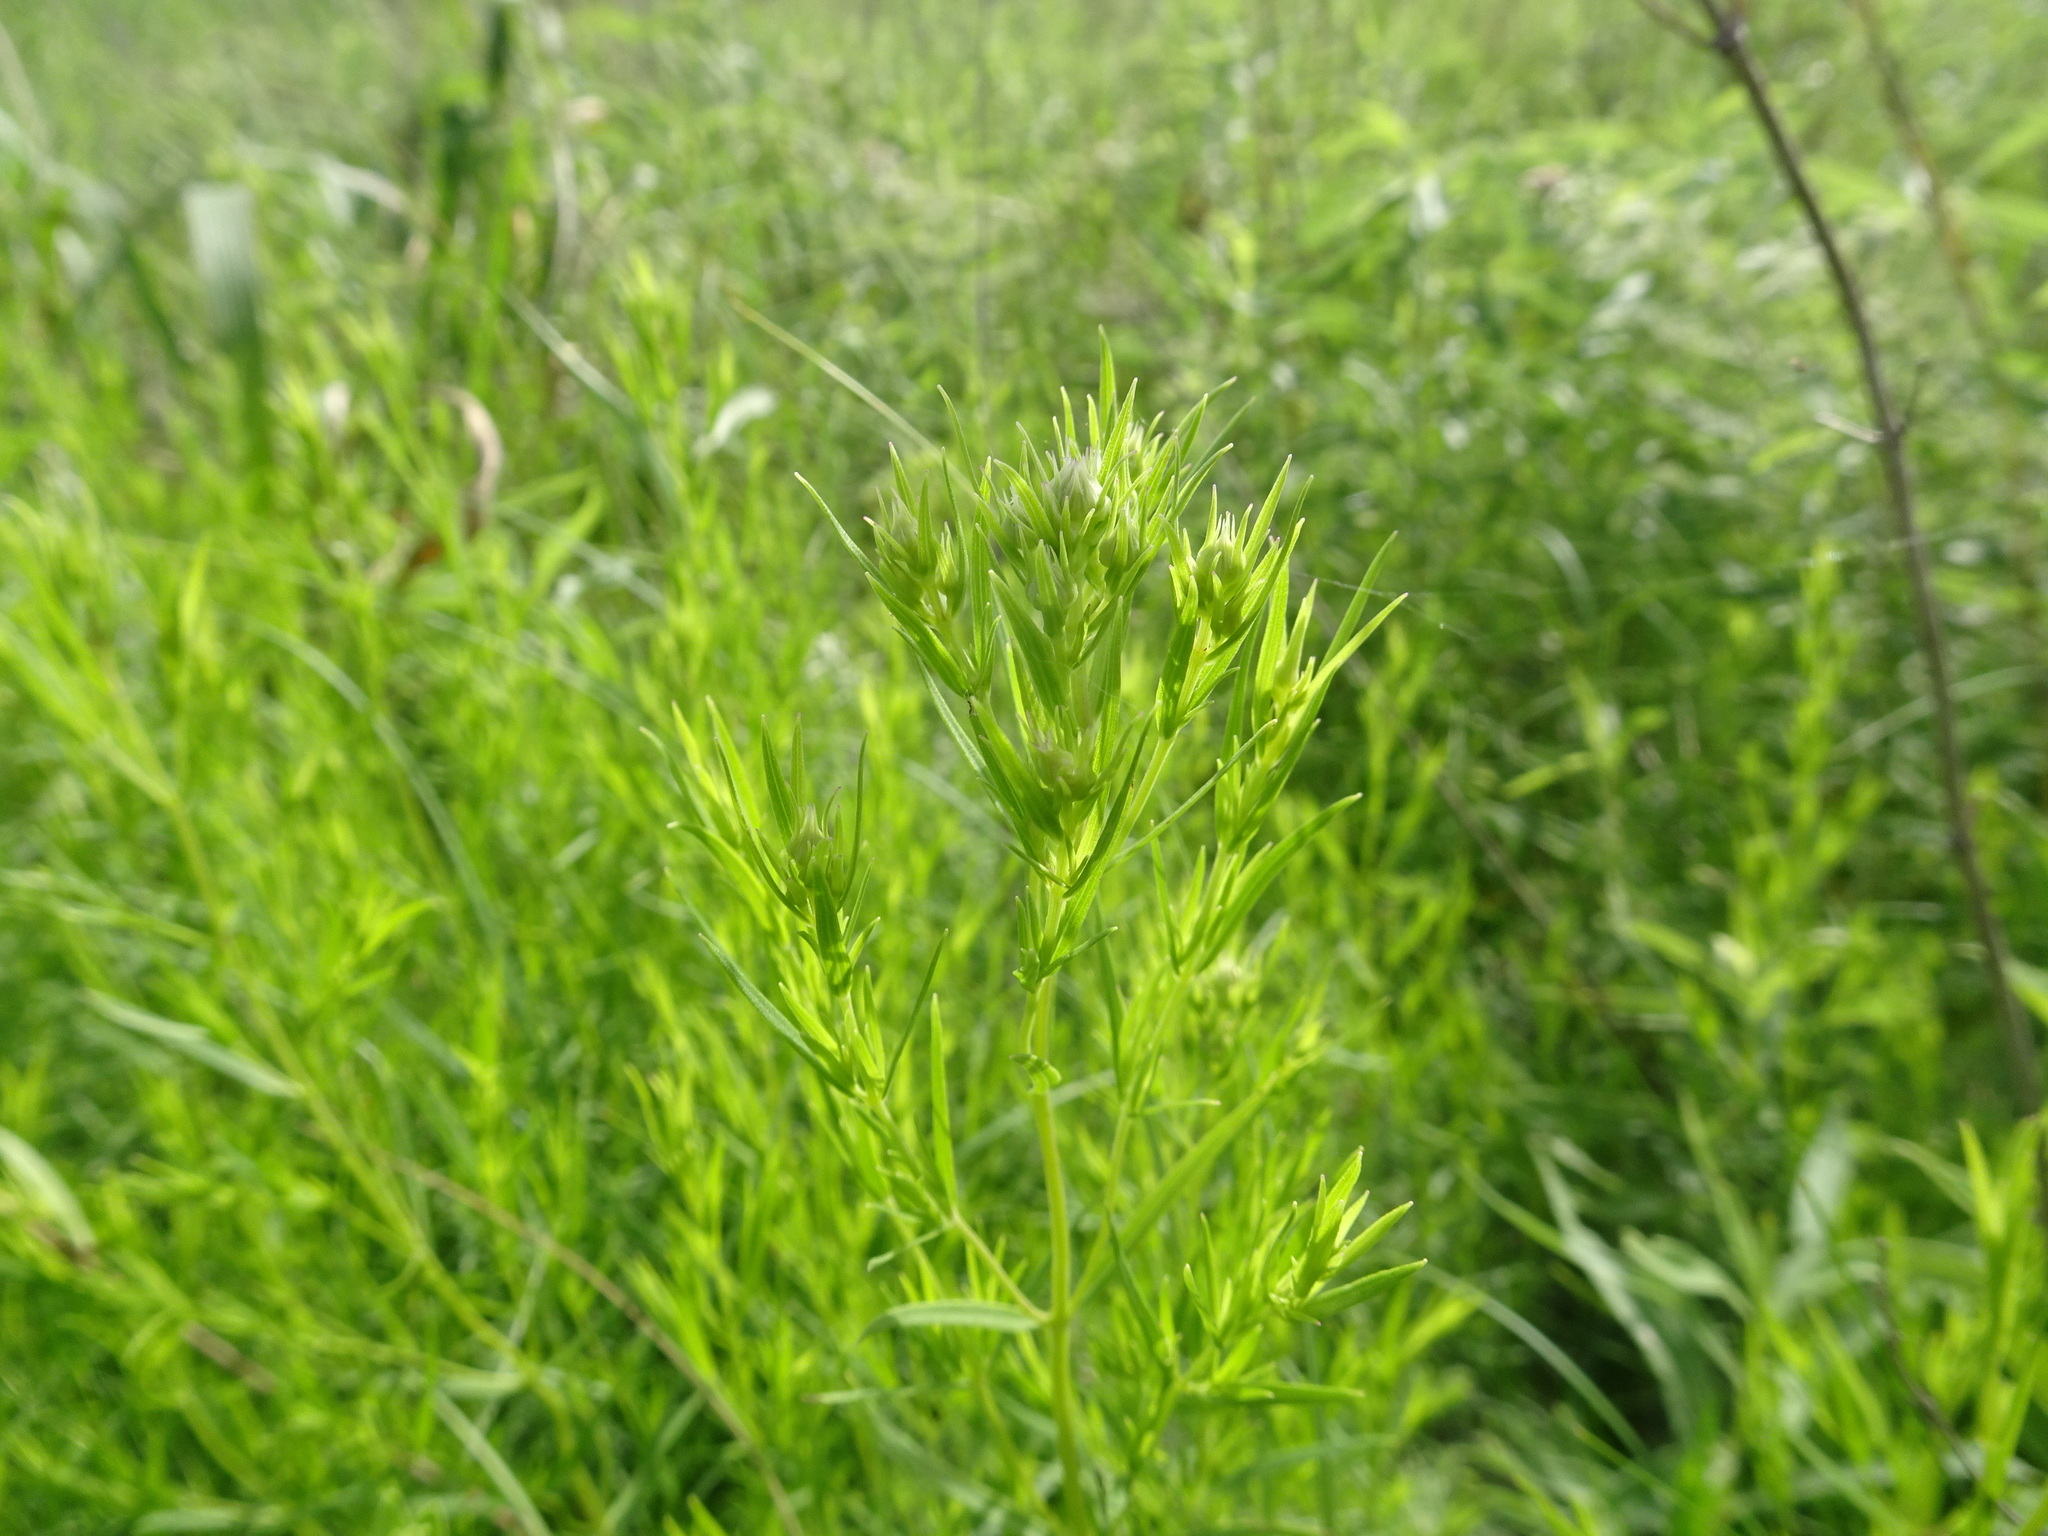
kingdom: Plantae
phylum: Tracheophyta
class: Magnoliopsida
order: Lamiales
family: Lamiaceae
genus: Pycnanthemum
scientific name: Pycnanthemum tenuifolium
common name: Narrow-leaf mountain-mint
